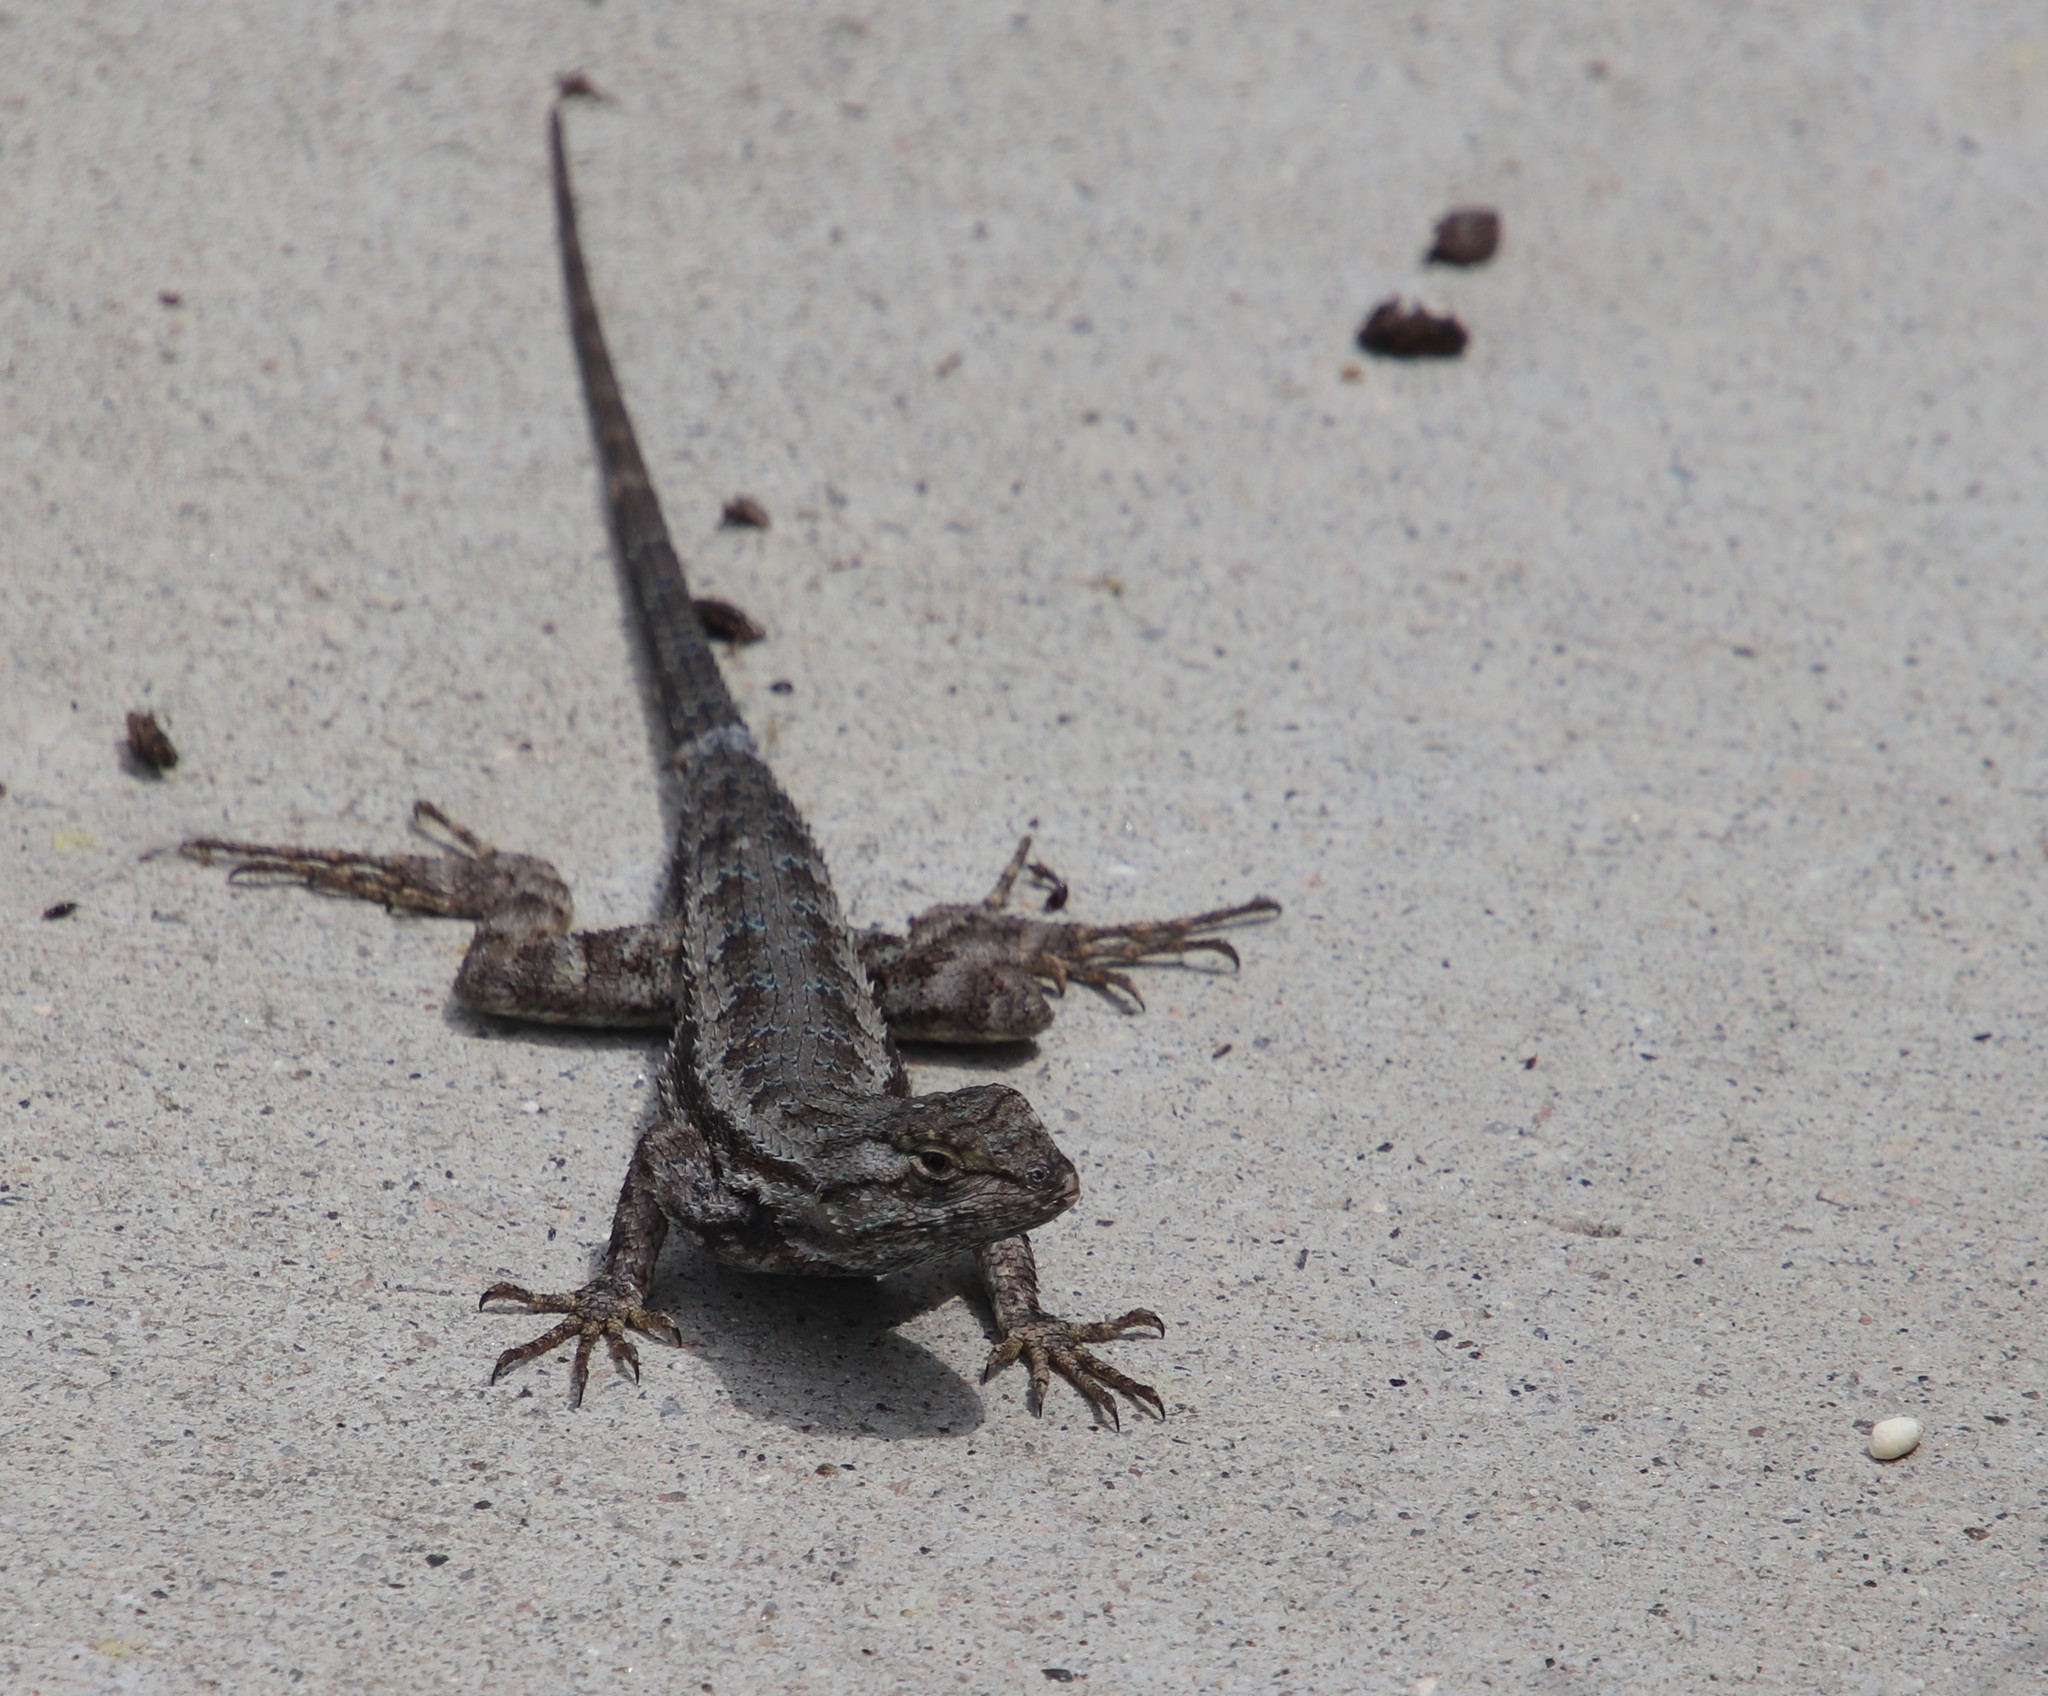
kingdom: Animalia
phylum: Chordata
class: Squamata
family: Phrynosomatidae
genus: Sceloporus
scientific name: Sceloporus occidentalis
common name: Western fence lizard
